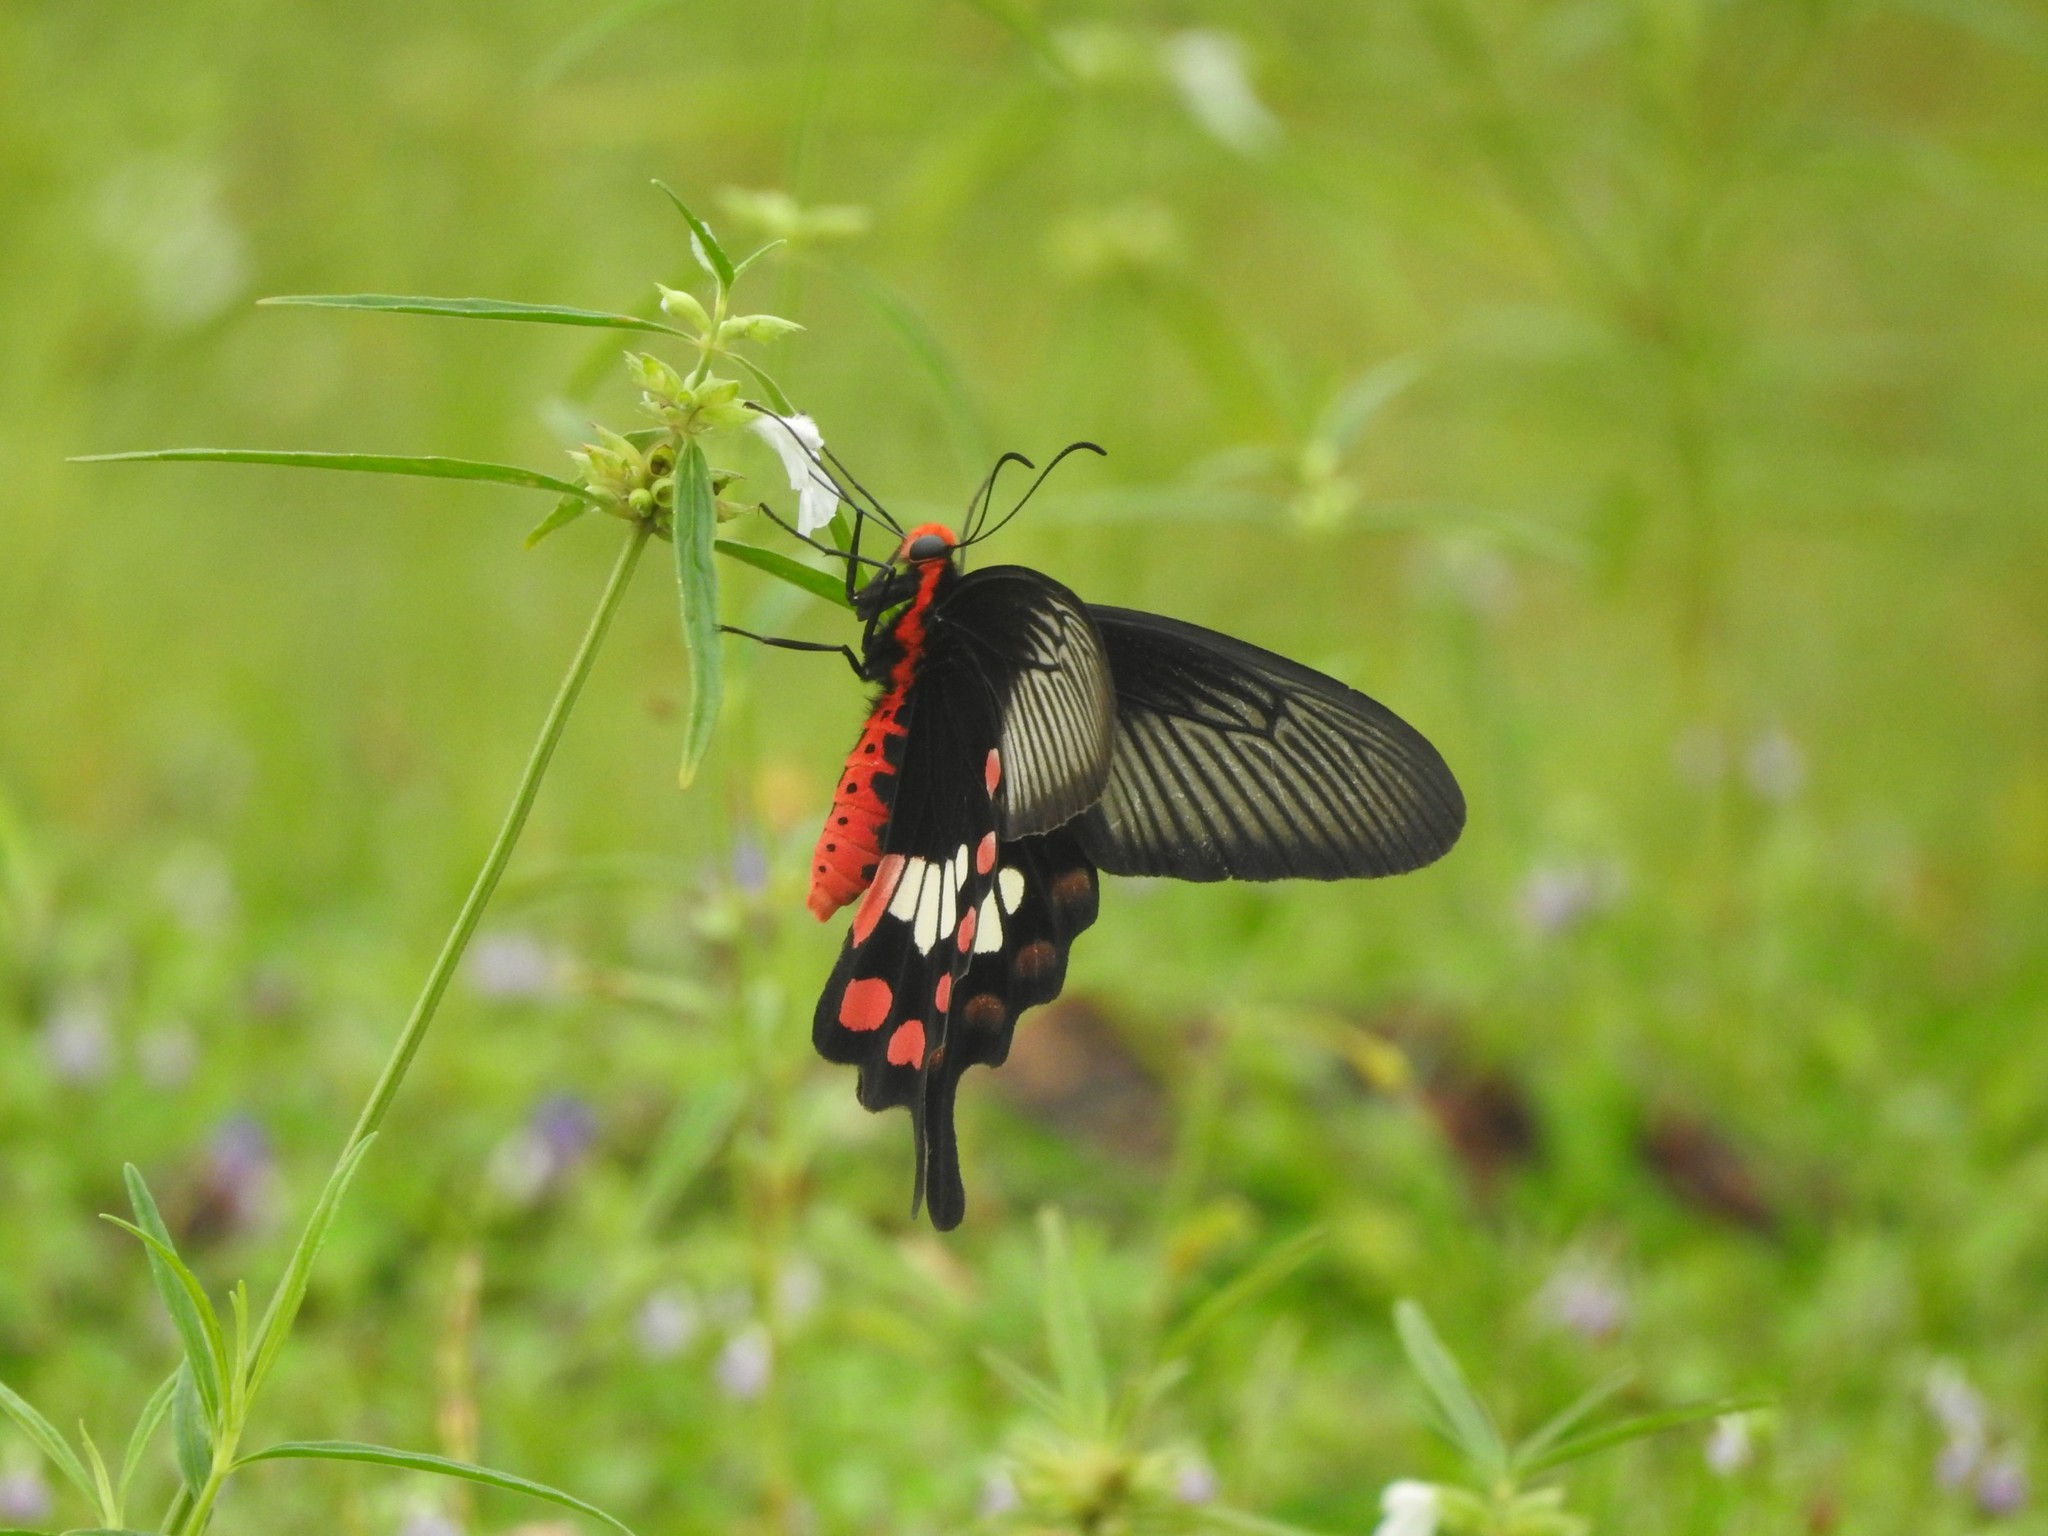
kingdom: Animalia
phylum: Arthropoda
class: Insecta
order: Lepidoptera
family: Papilionidae
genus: Pachliopta
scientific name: Pachliopta aristolochiae
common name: Common rose
